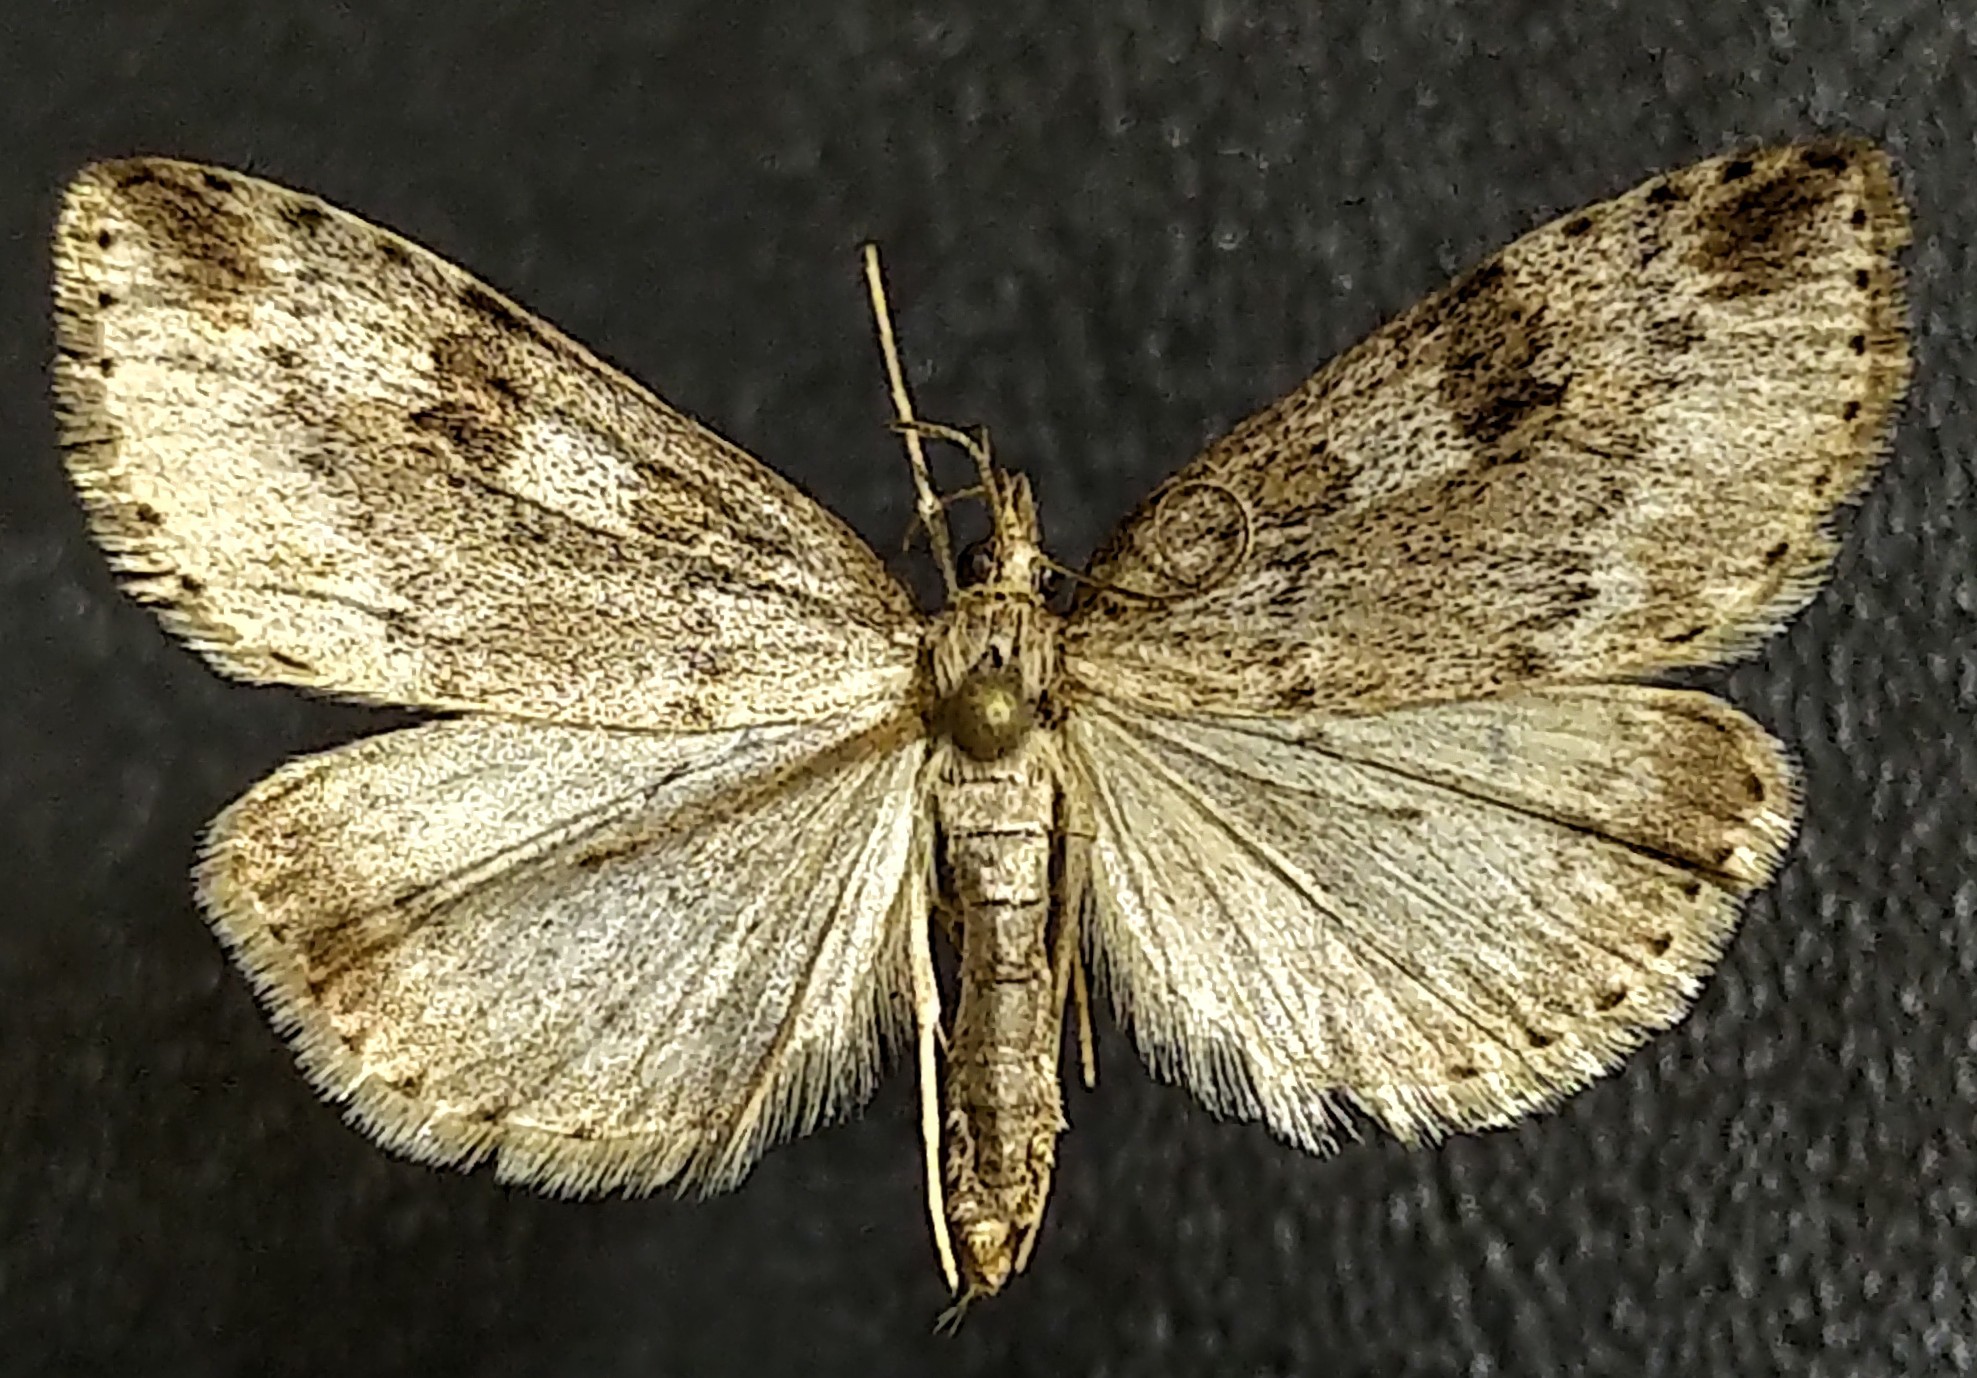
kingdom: Animalia
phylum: Arthropoda
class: Insecta
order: Lepidoptera
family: Crambidae
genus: Udea
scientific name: Udea washingtonalis
